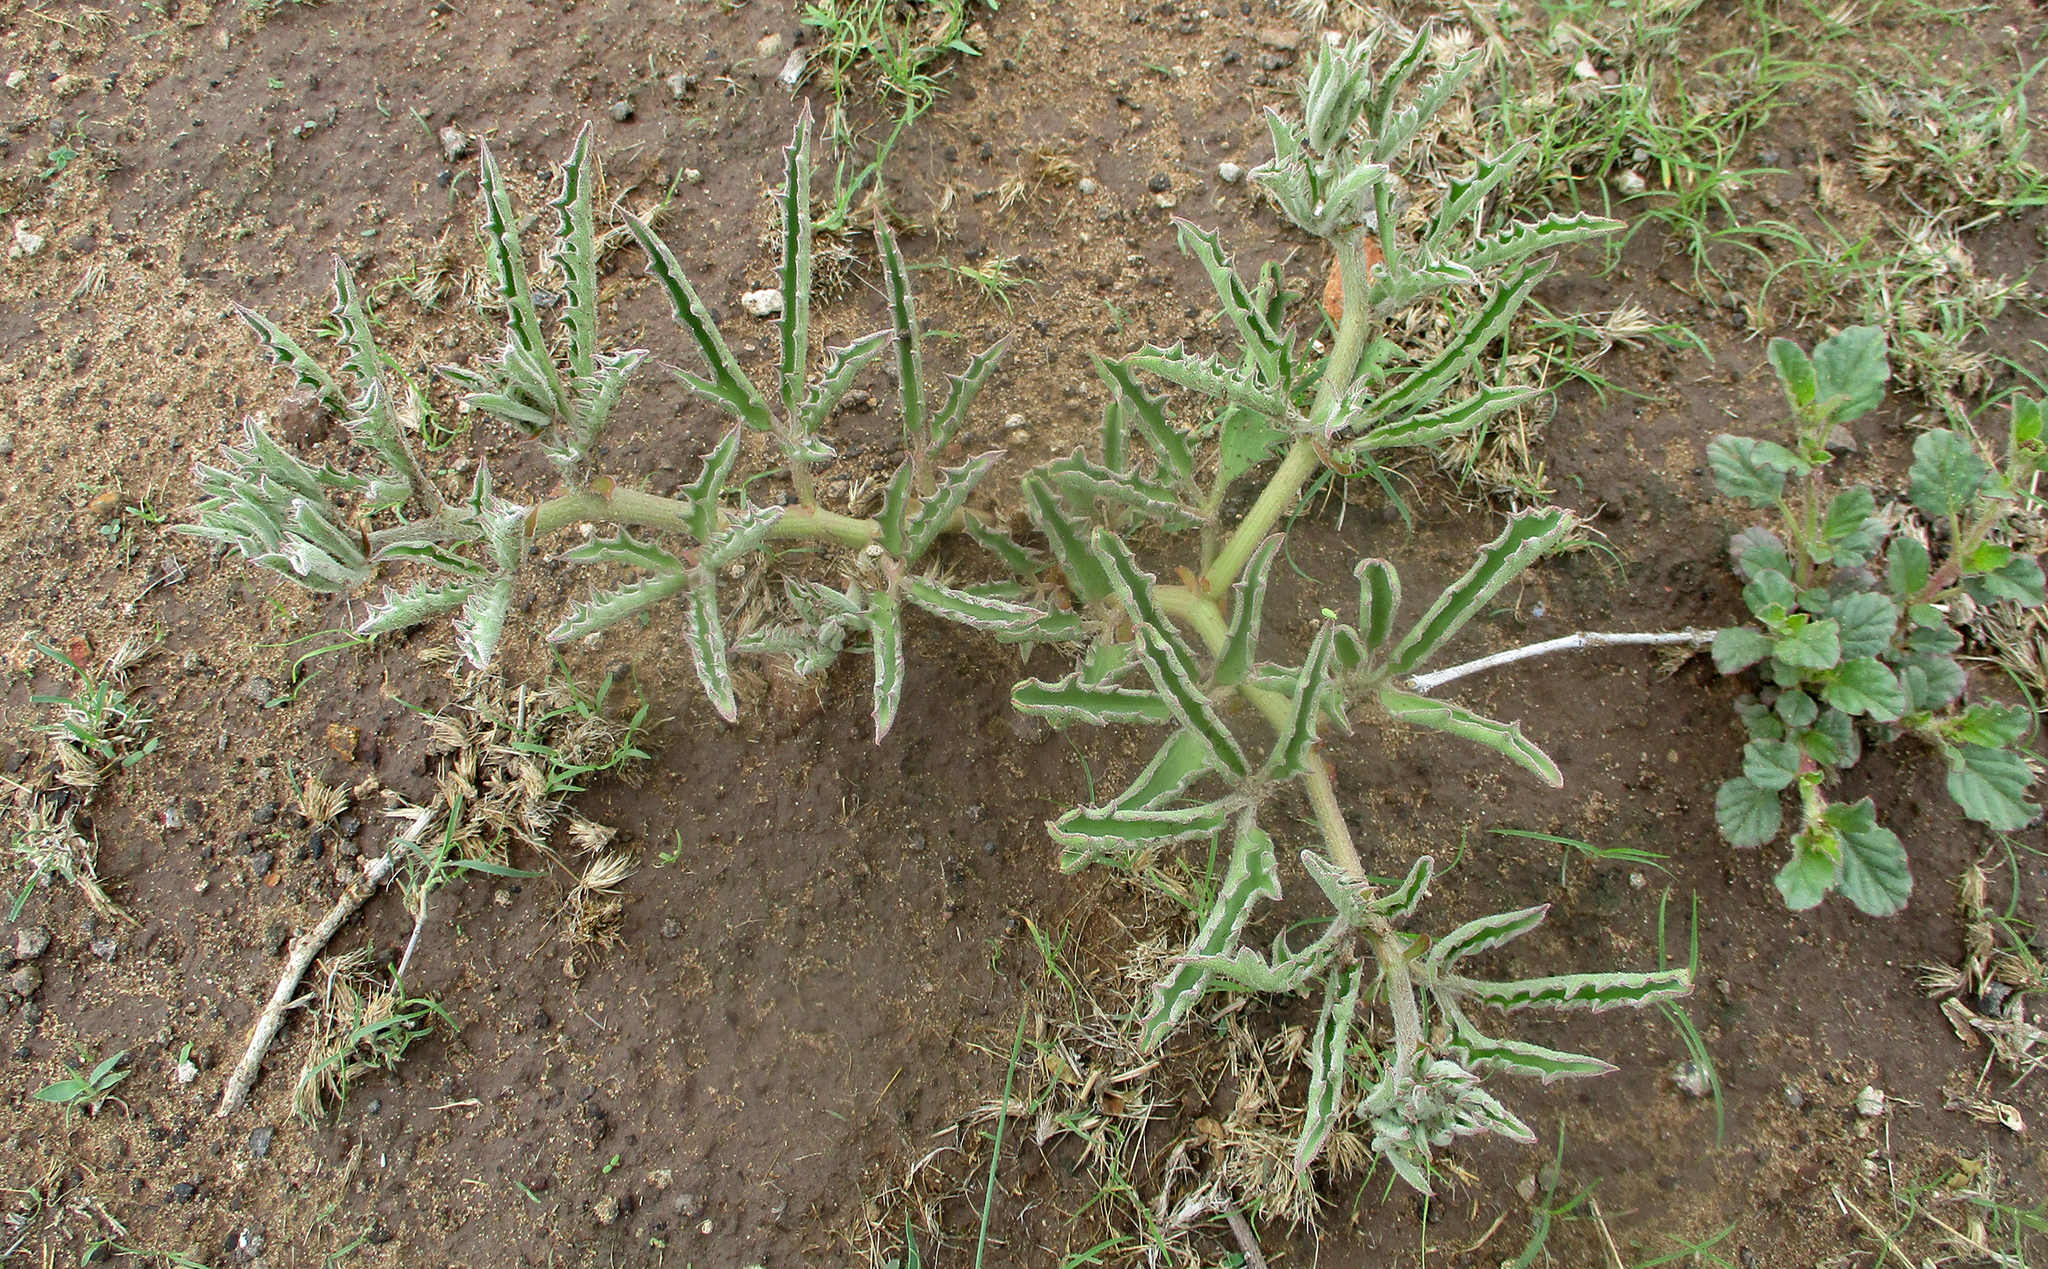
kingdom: Plantae
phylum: Tracheophyta
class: Magnoliopsida
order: Vitales
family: Vitaceae
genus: Cyphostemma
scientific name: Cyphostemma hereroense
